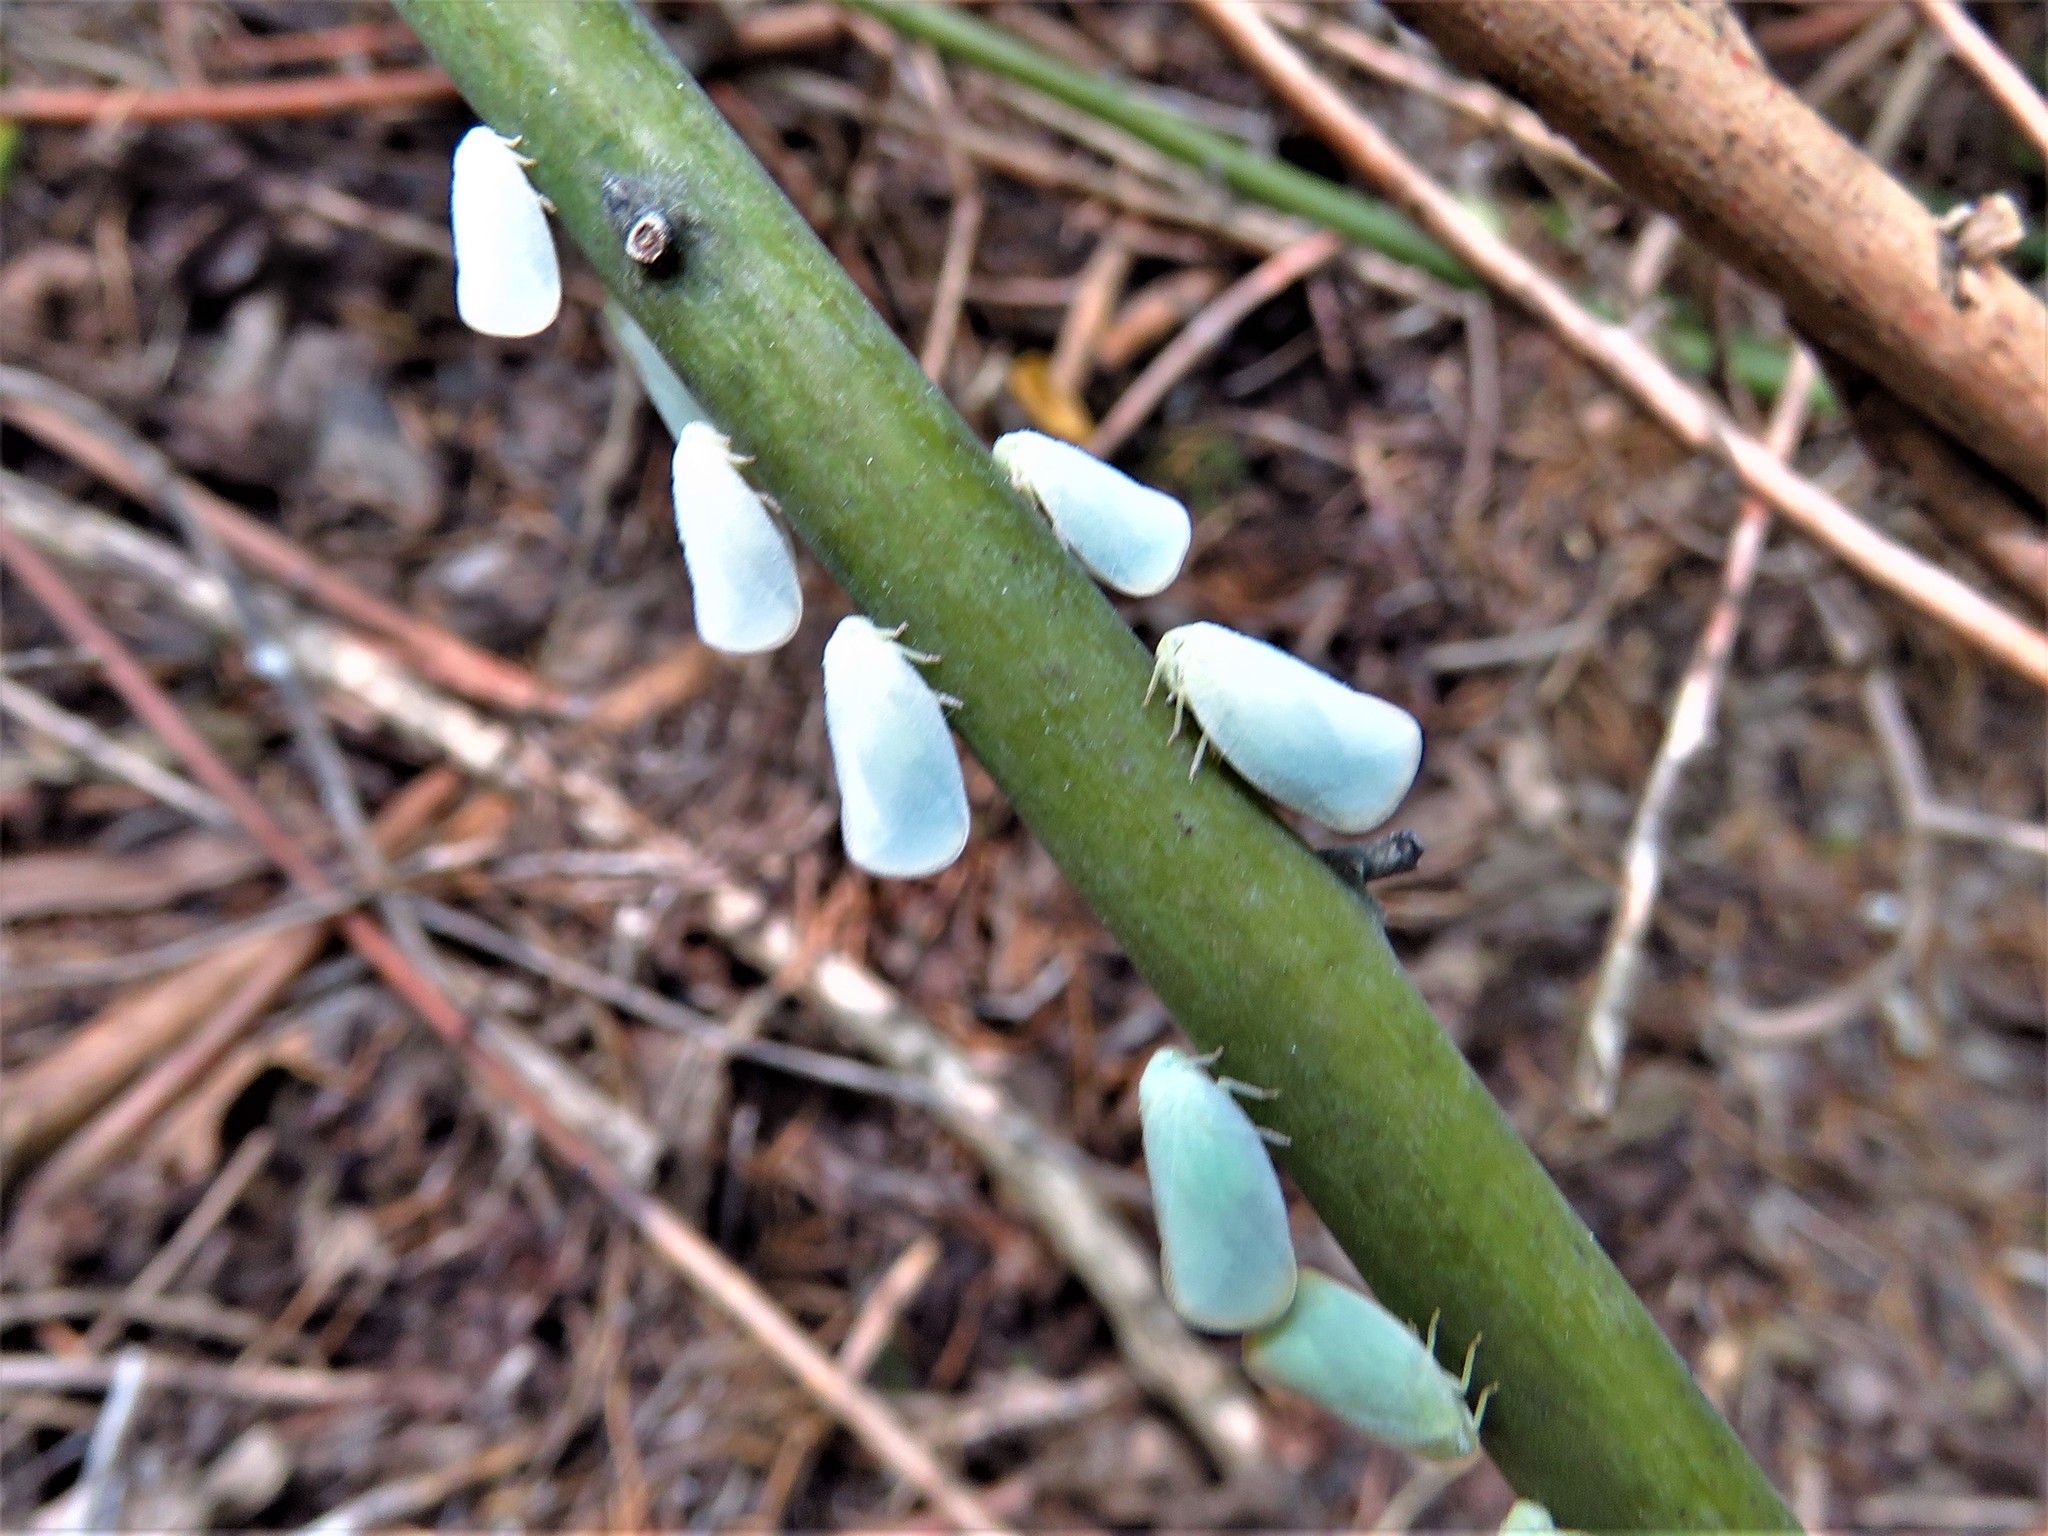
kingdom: Animalia
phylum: Arthropoda
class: Insecta
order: Hemiptera
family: Flatidae
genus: Ormenoides
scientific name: Ormenoides venusta
